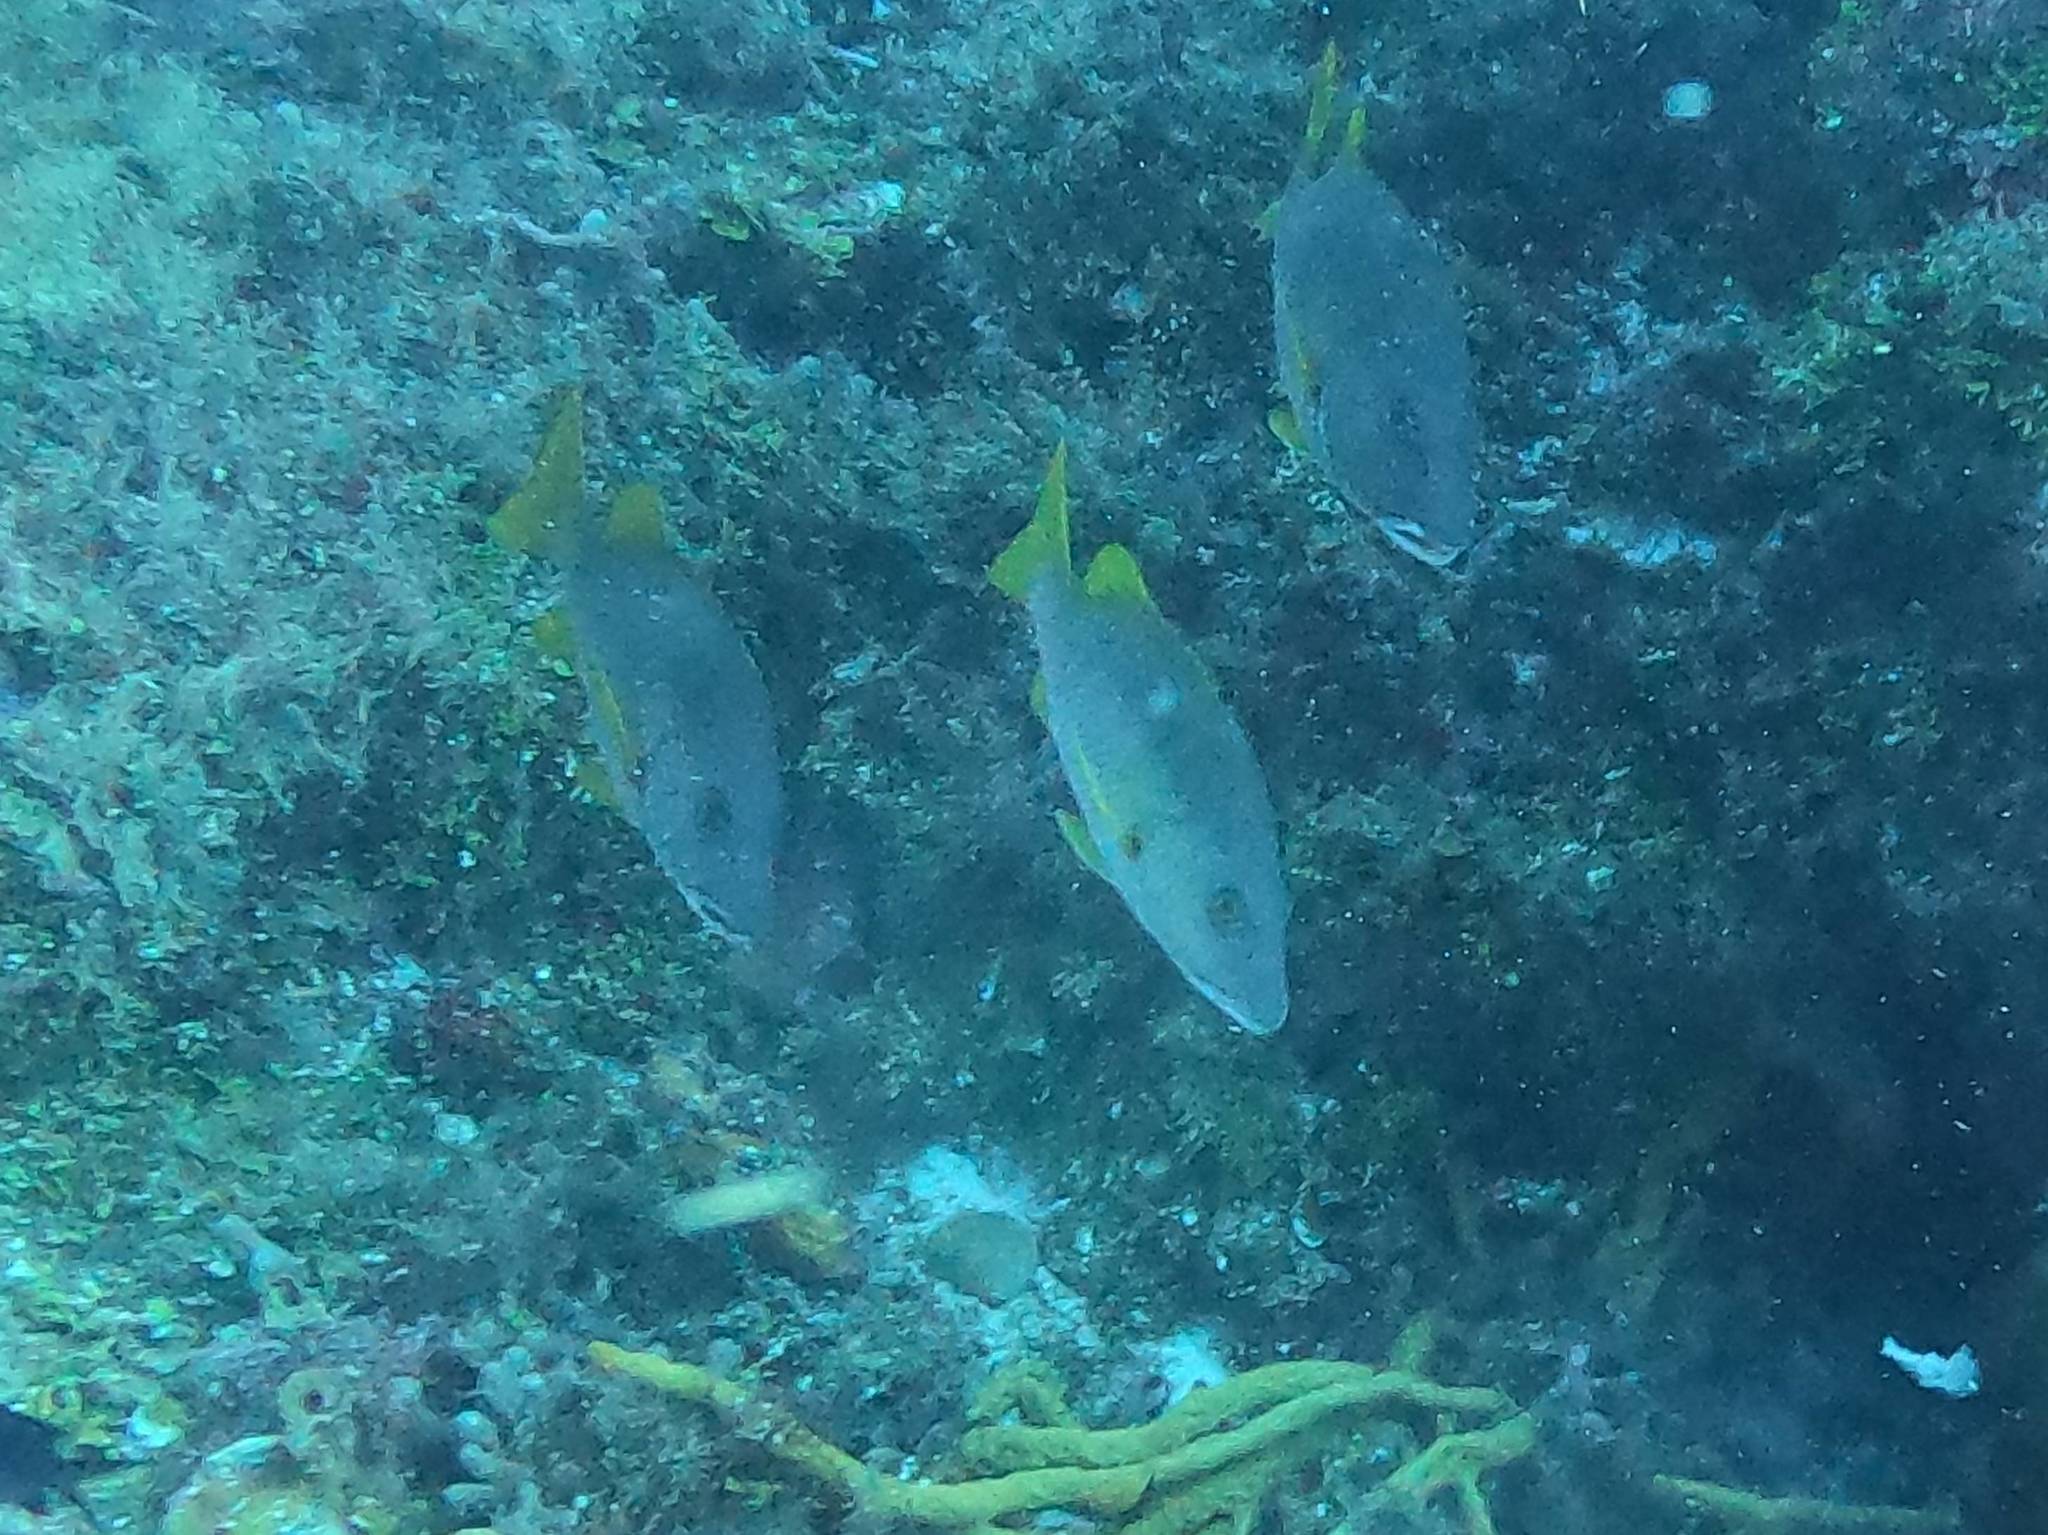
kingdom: Animalia
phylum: Chordata
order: Perciformes
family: Lutjanidae
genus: Lutjanus
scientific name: Lutjanus apodus
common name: Schoolmaster
